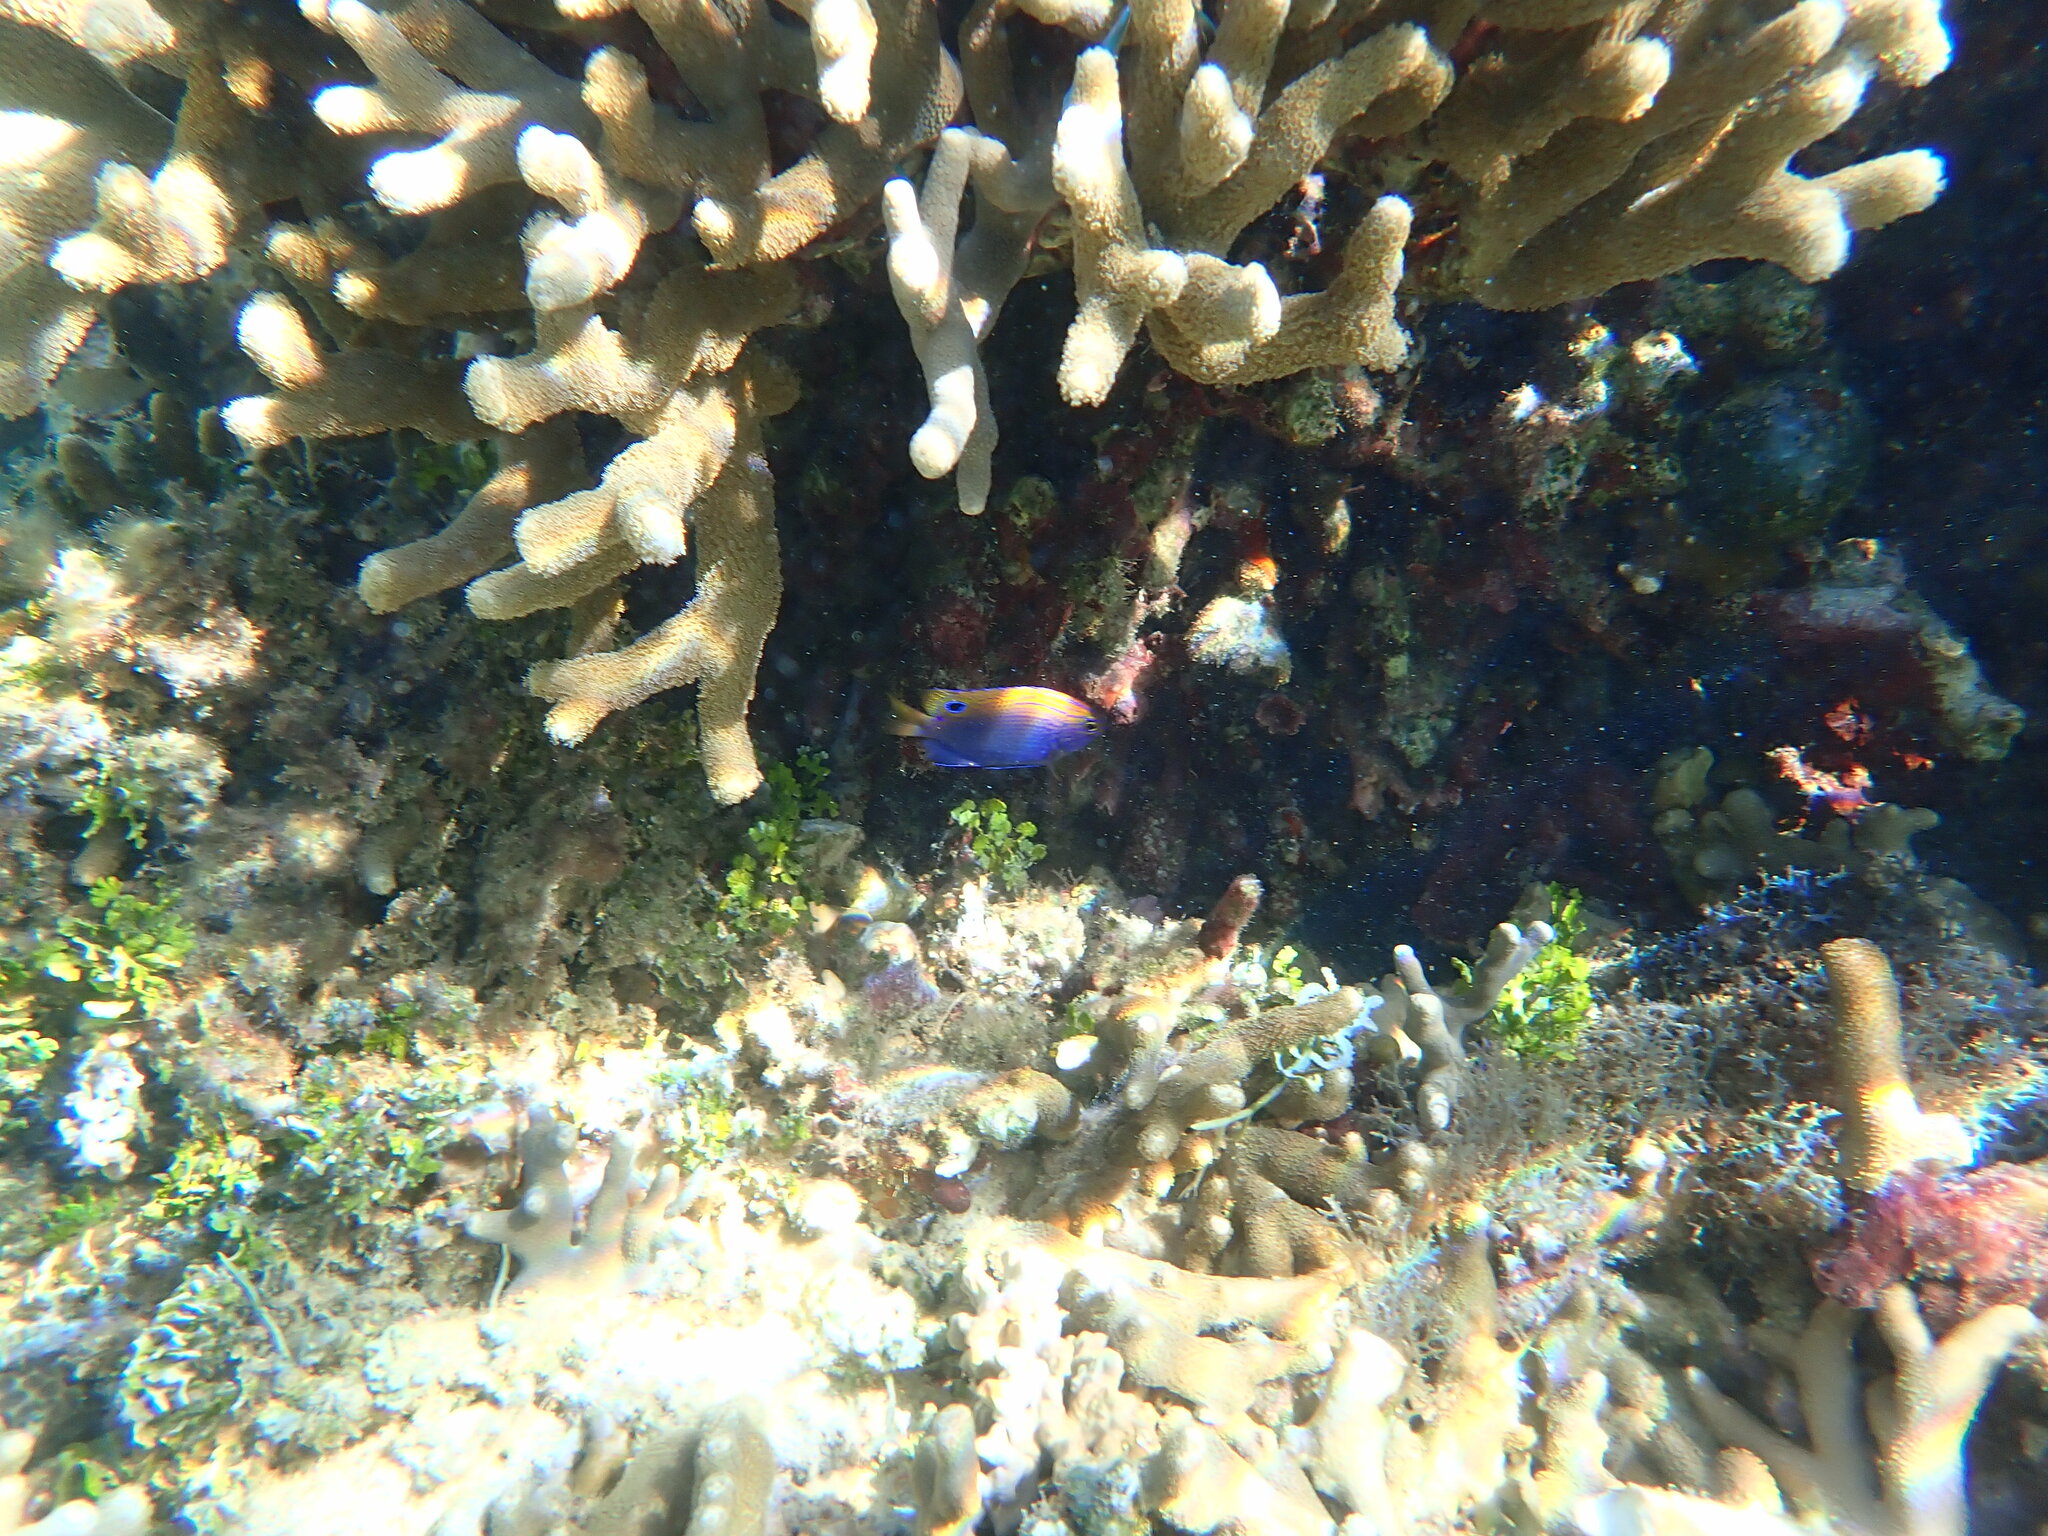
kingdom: Animalia
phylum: Chordata
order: Perciformes
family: Pomacentridae
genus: Pomacentrus
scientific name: Pomacentrus vaiuli
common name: Princess damsel
